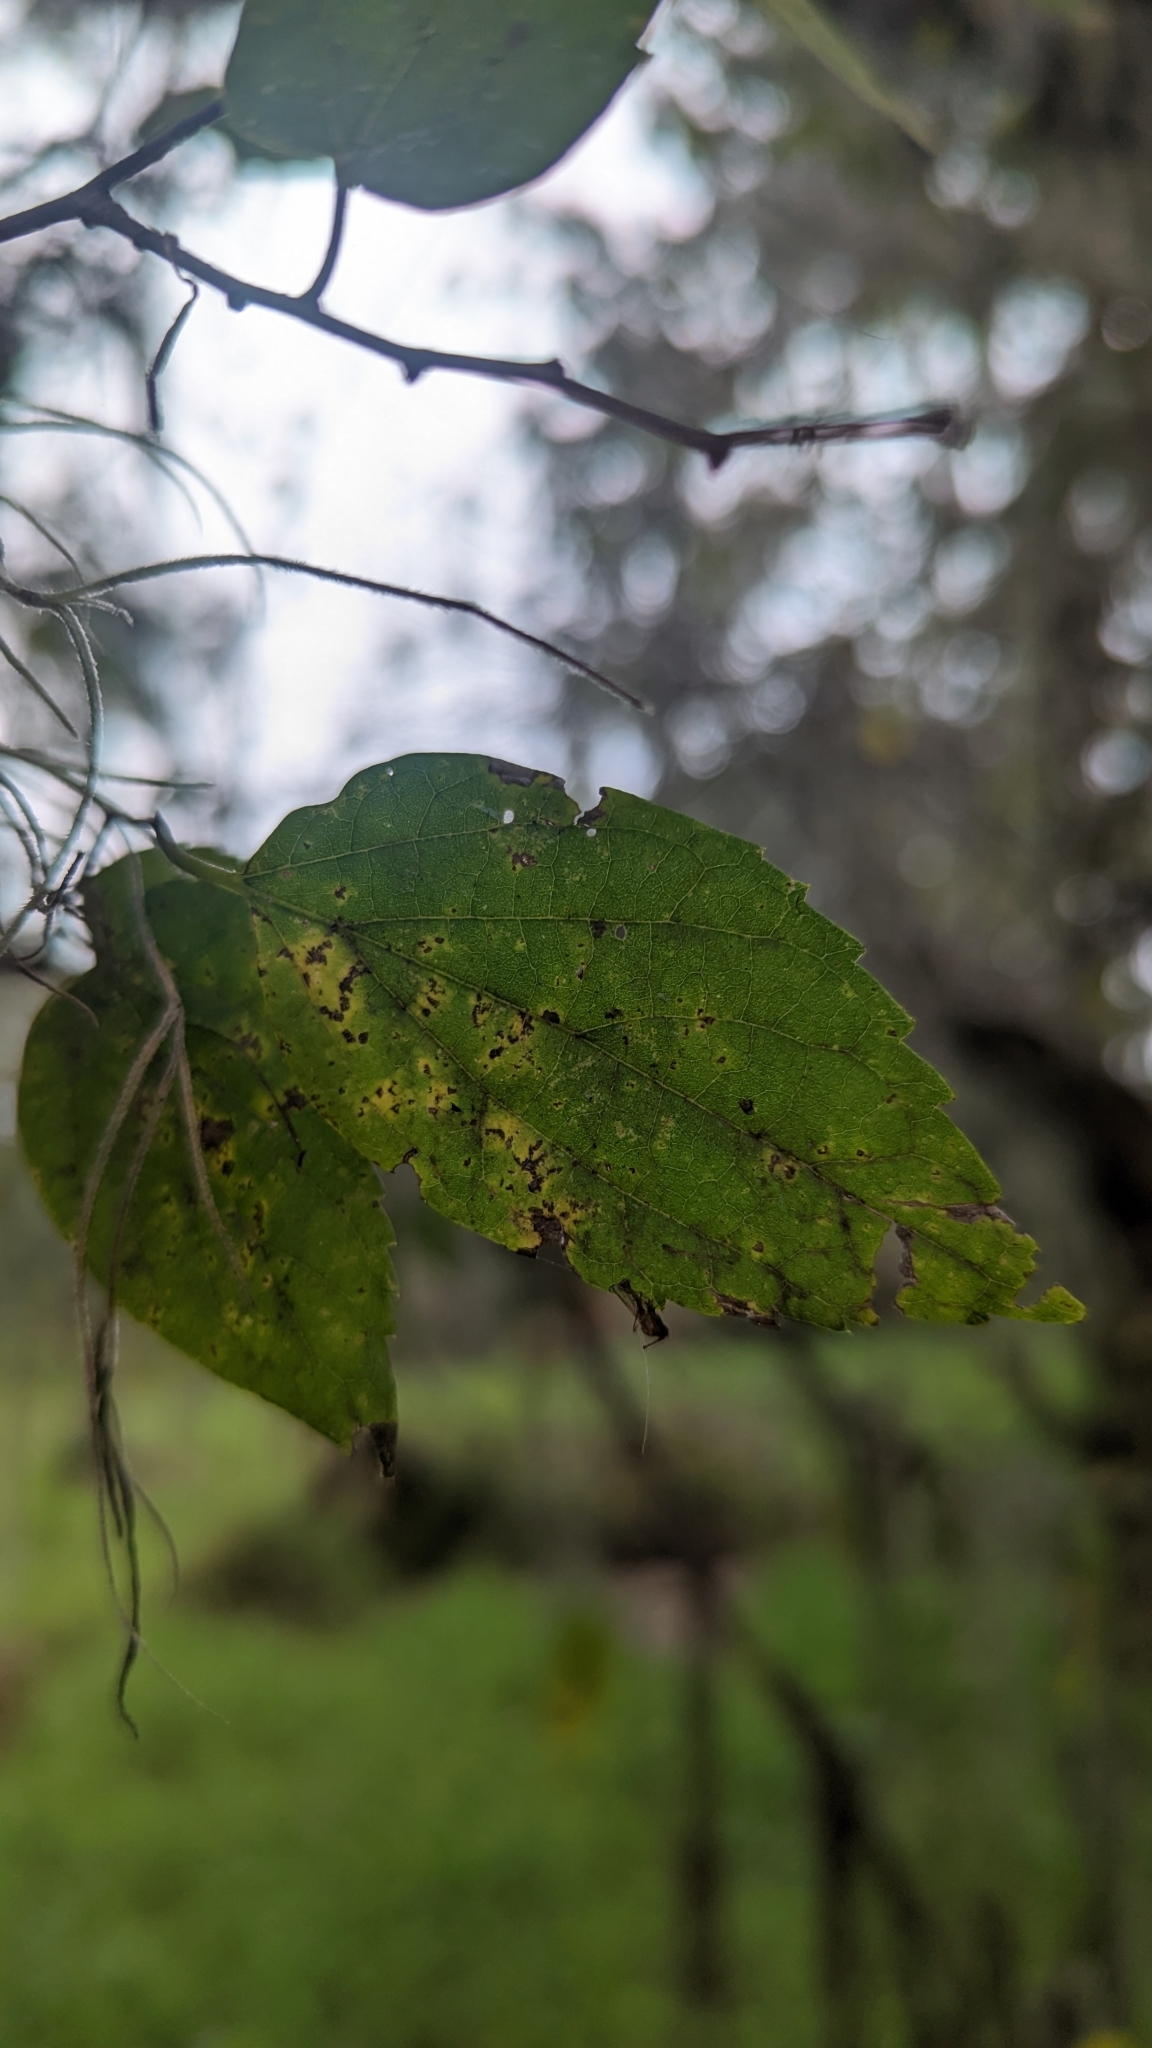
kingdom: Plantae
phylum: Tracheophyta
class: Magnoliopsida
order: Rosales
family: Cannabaceae
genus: Celtis
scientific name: Celtis laevigata
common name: Sugarberry
